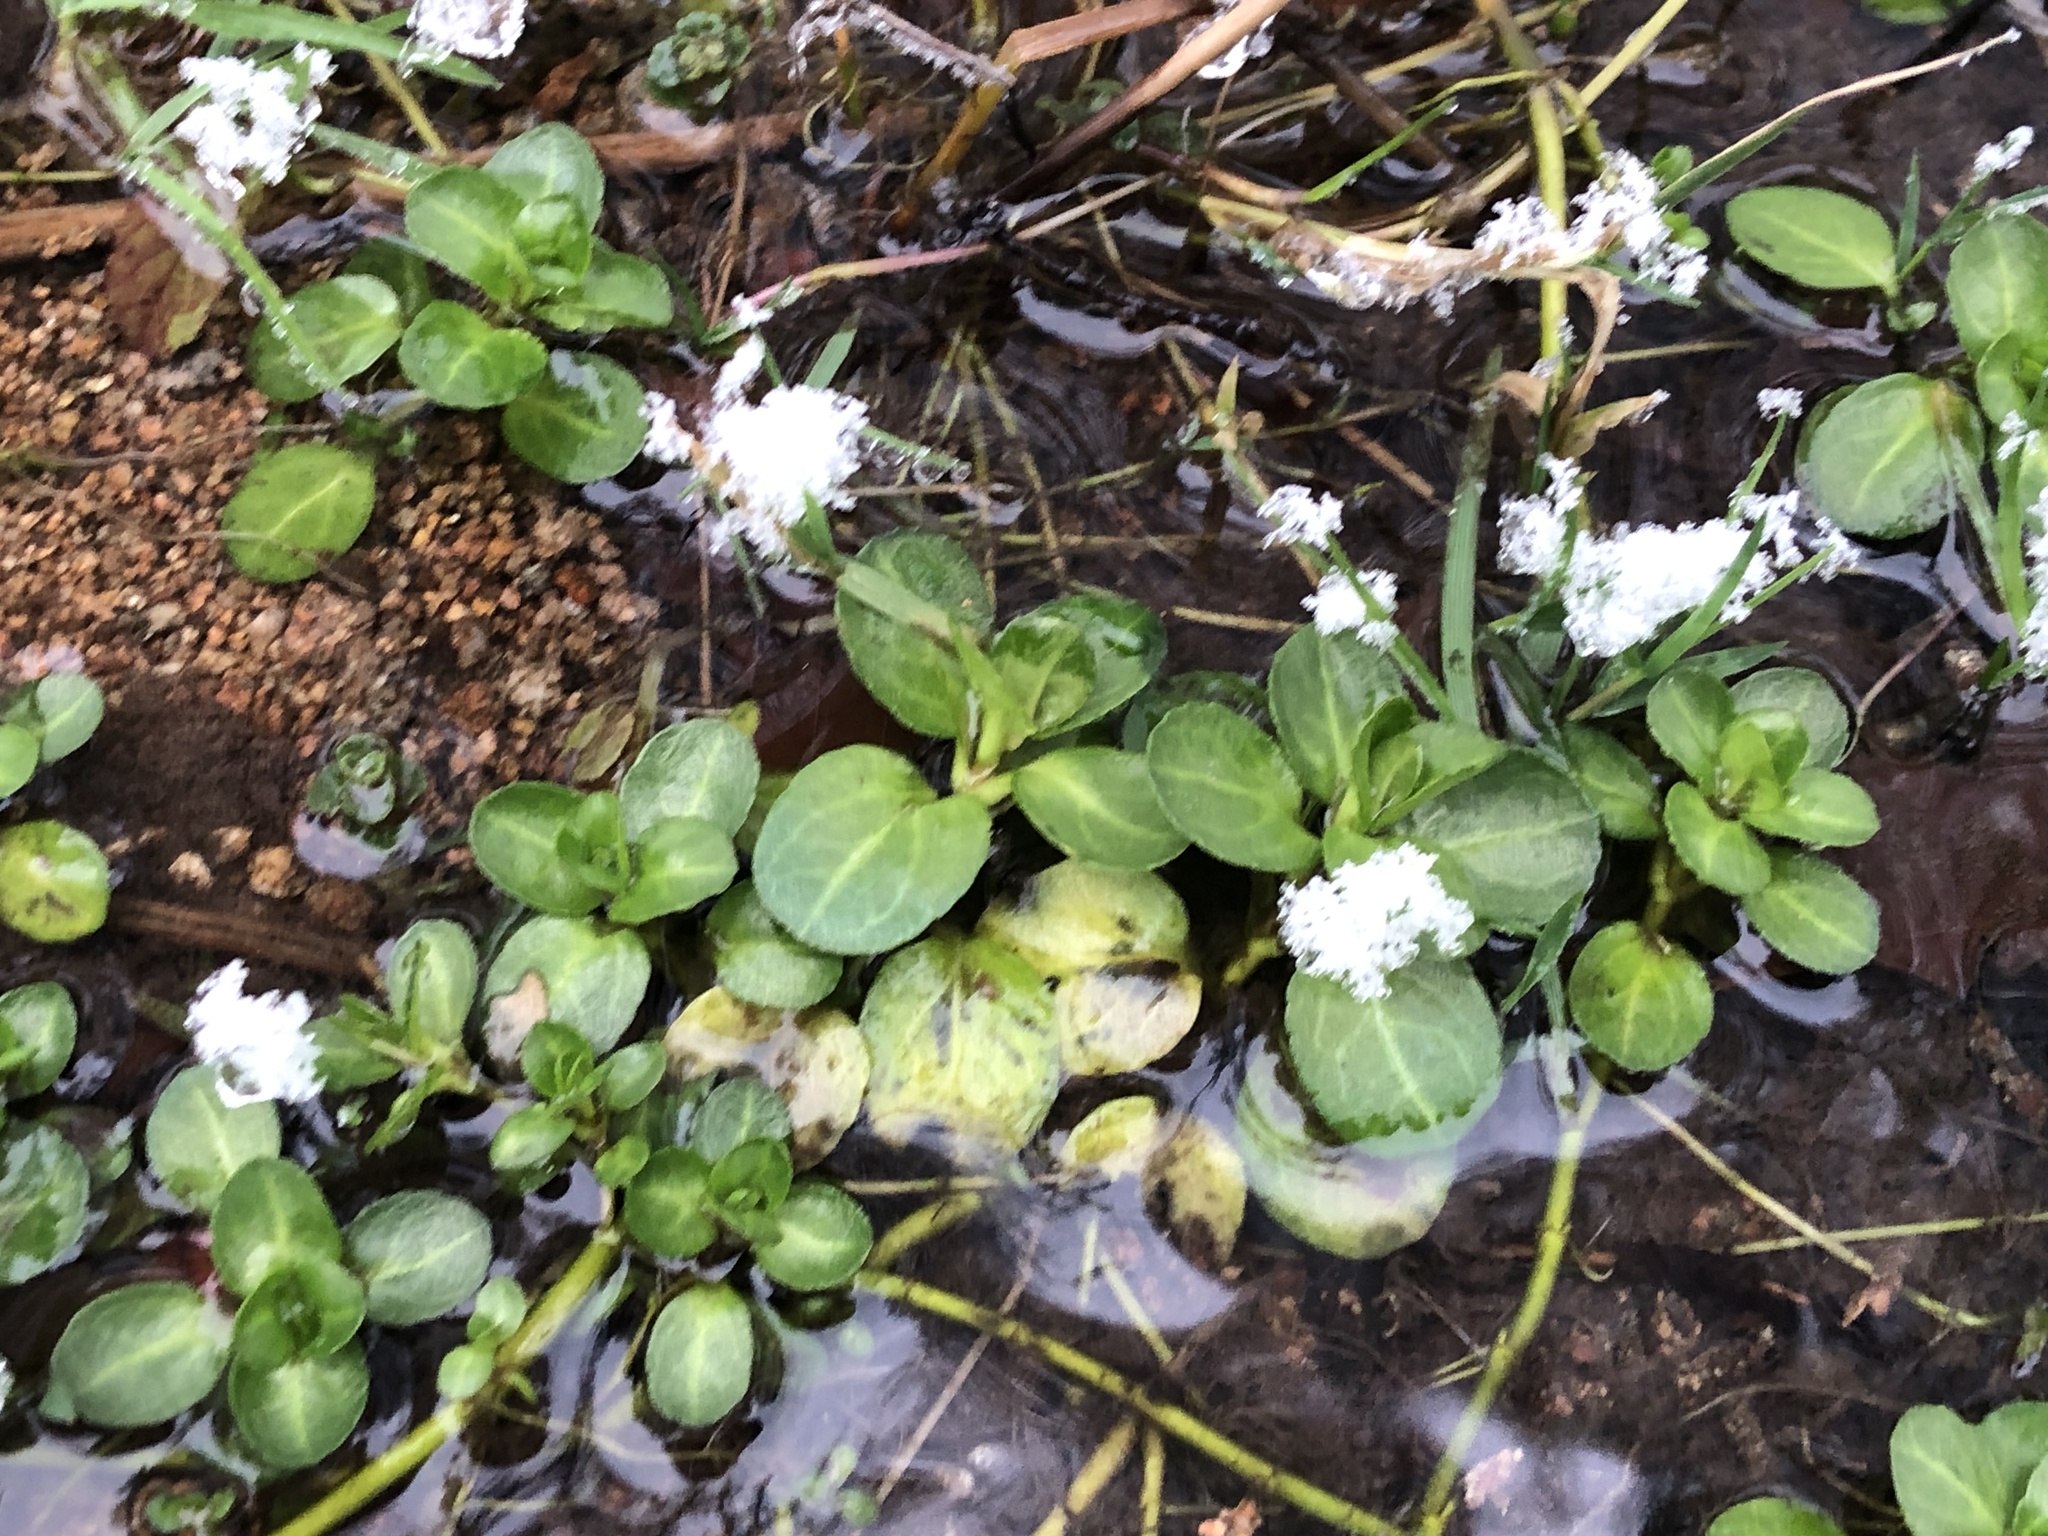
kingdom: Plantae
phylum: Tracheophyta
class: Magnoliopsida
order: Lamiales
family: Plantaginaceae
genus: Veronica
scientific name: Veronica beccabunga
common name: Brooklime
